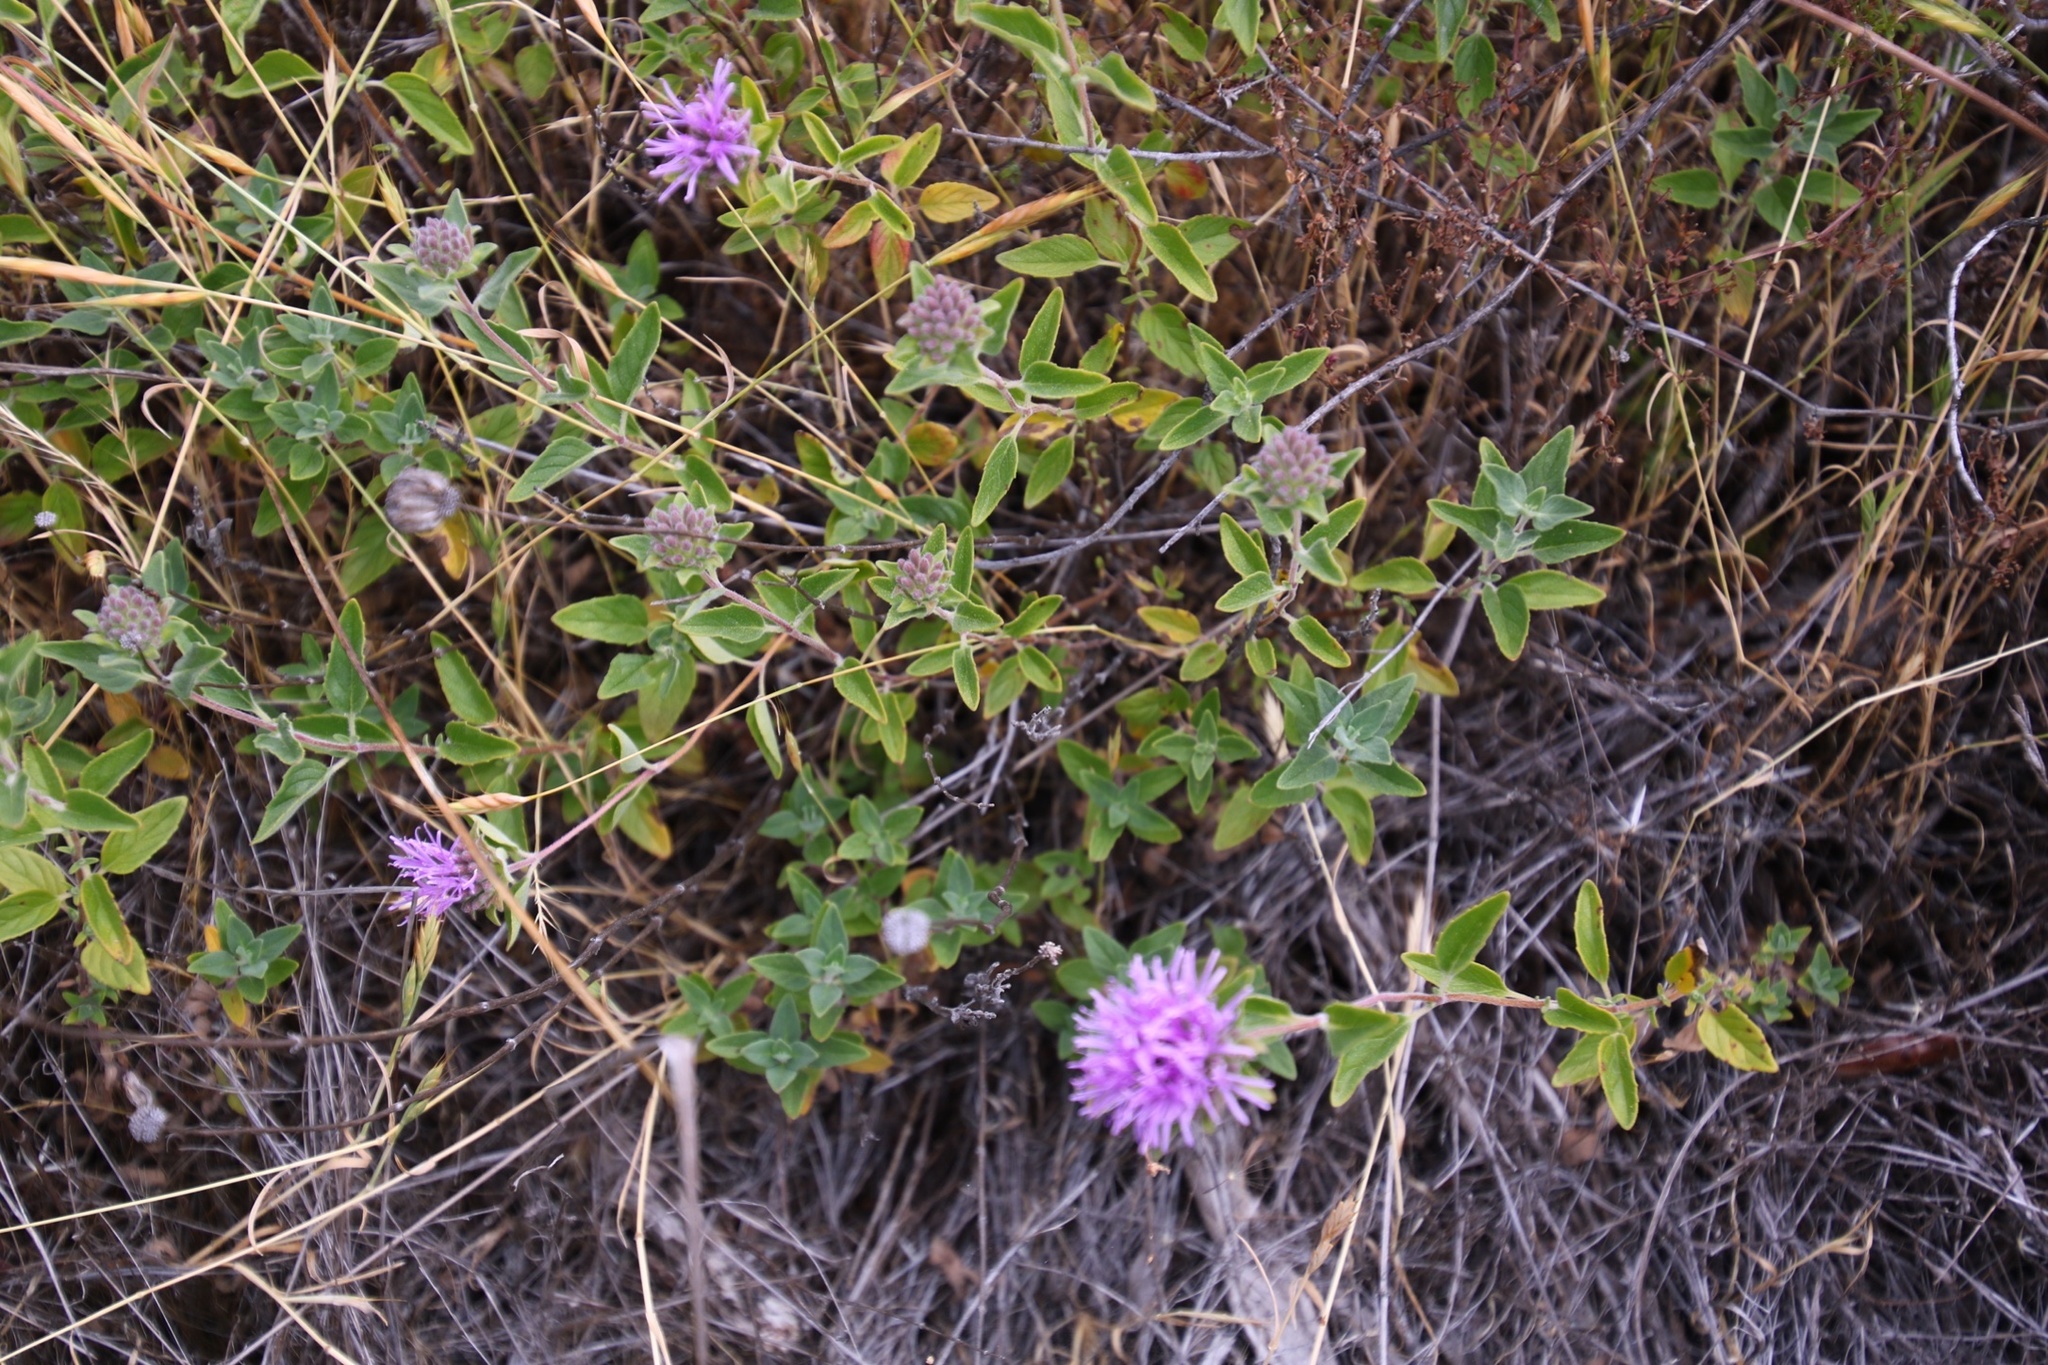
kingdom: Plantae
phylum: Tracheophyta
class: Magnoliopsida
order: Lamiales
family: Lamiaceae
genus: Monardella
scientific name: Monardella odoratissima
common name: Pacific monardella
